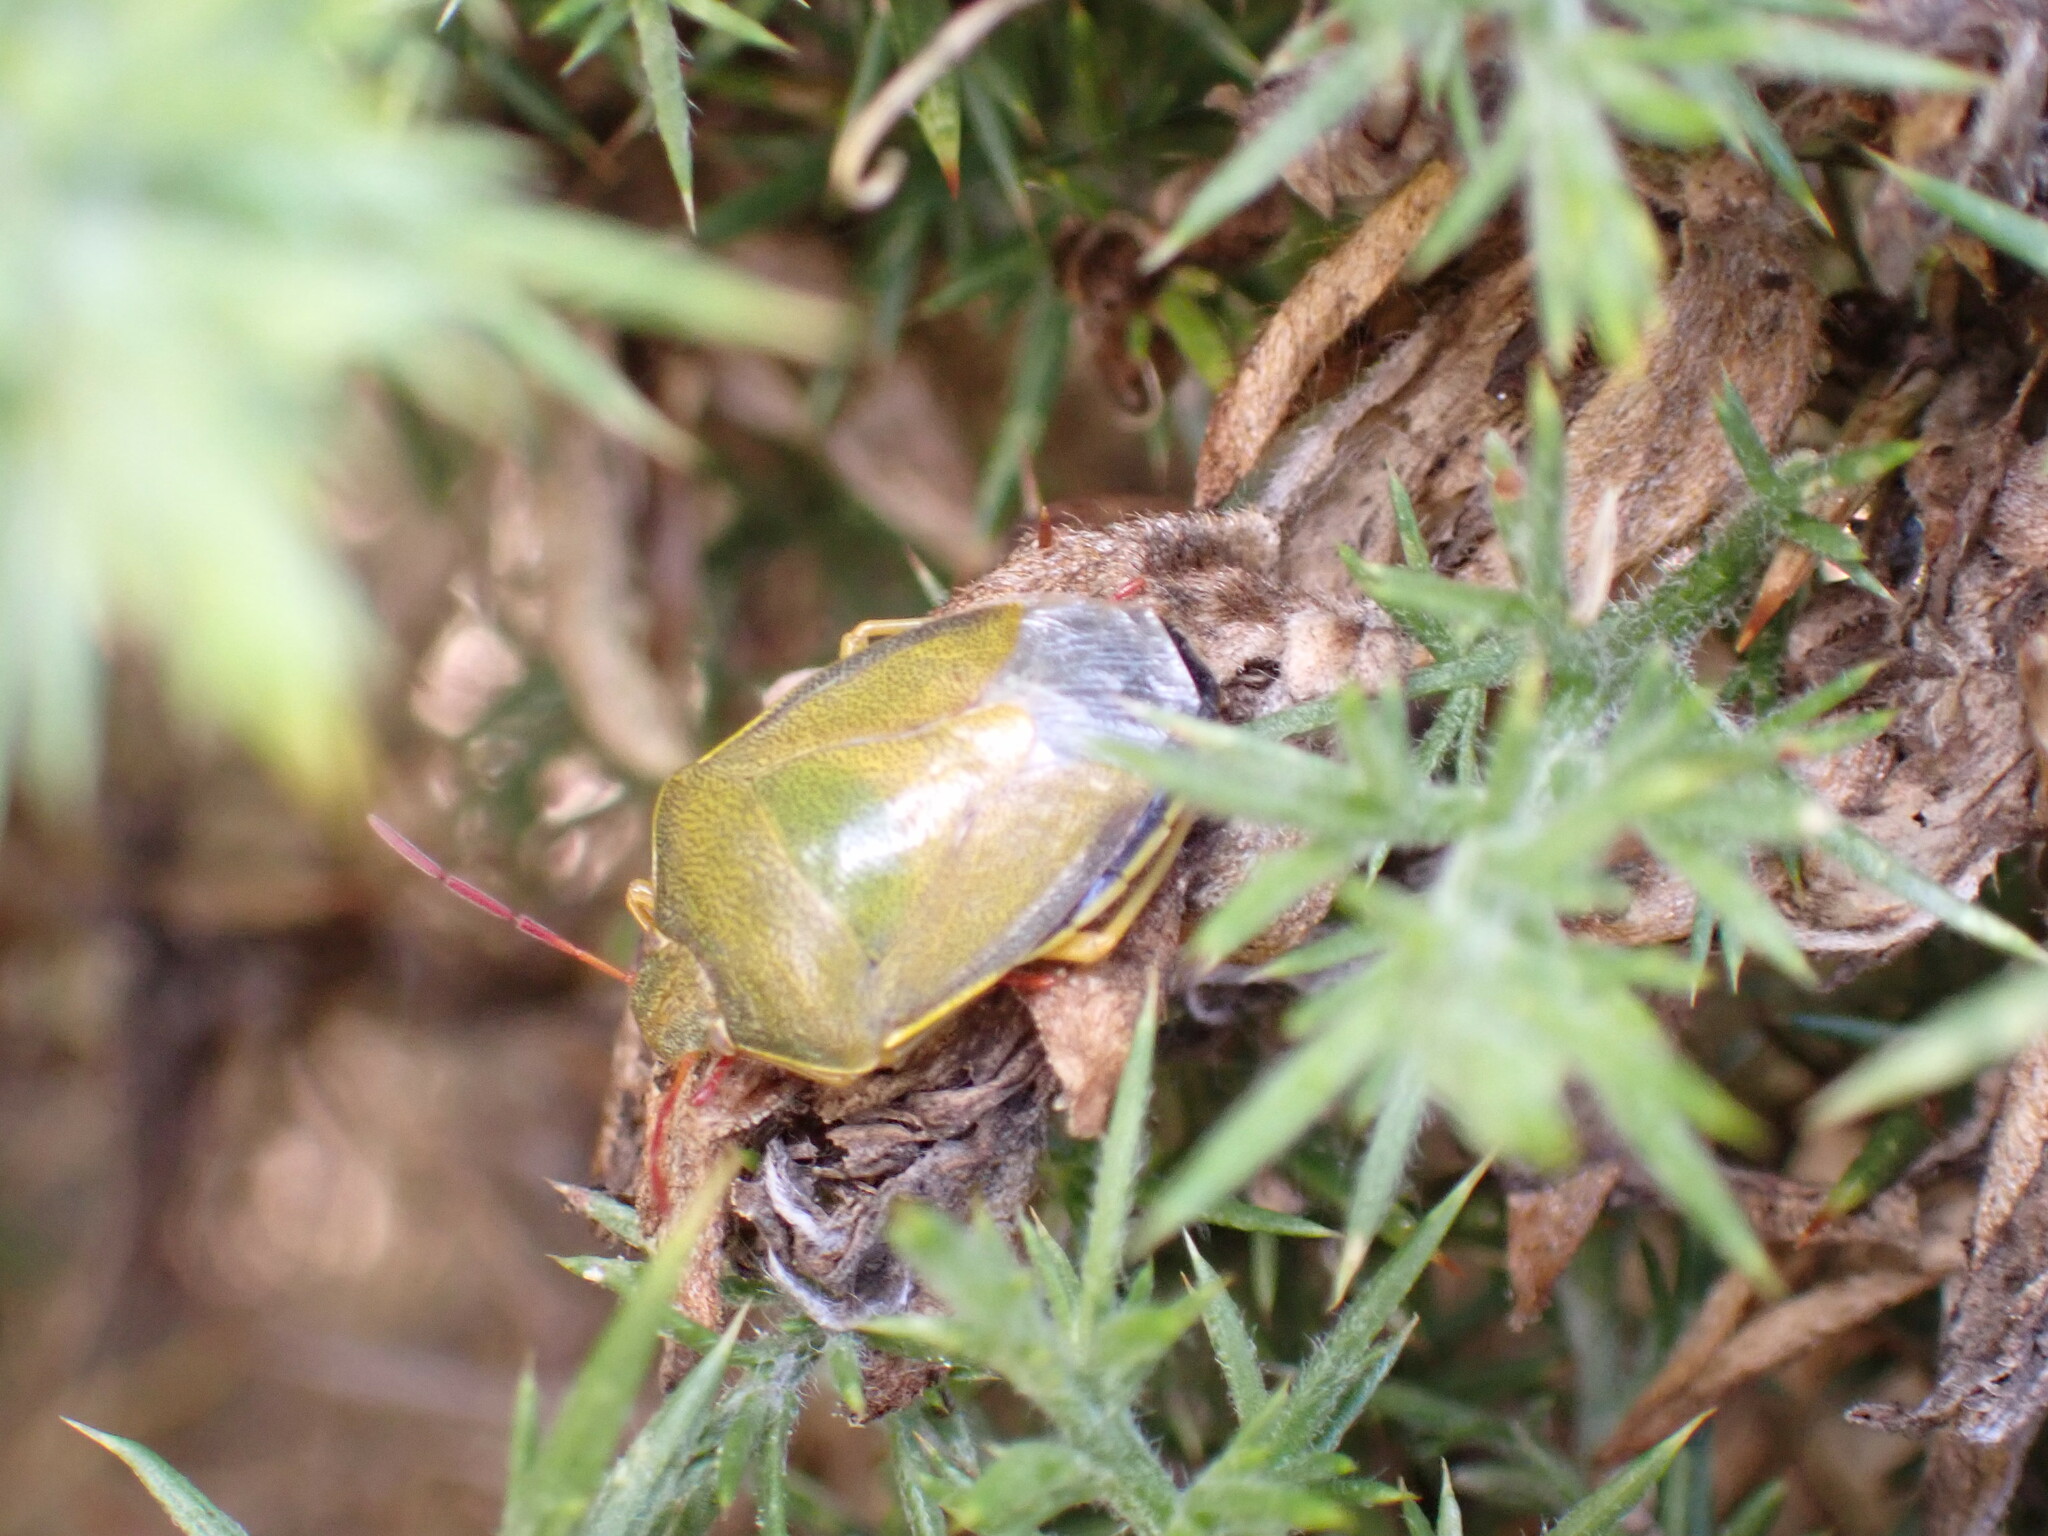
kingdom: Animalia
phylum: Arthropoda
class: Insecta
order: Hemiptera
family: Pentatomidae
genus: Piezodorus
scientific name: Piezodorus lituratus
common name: Stink bug
